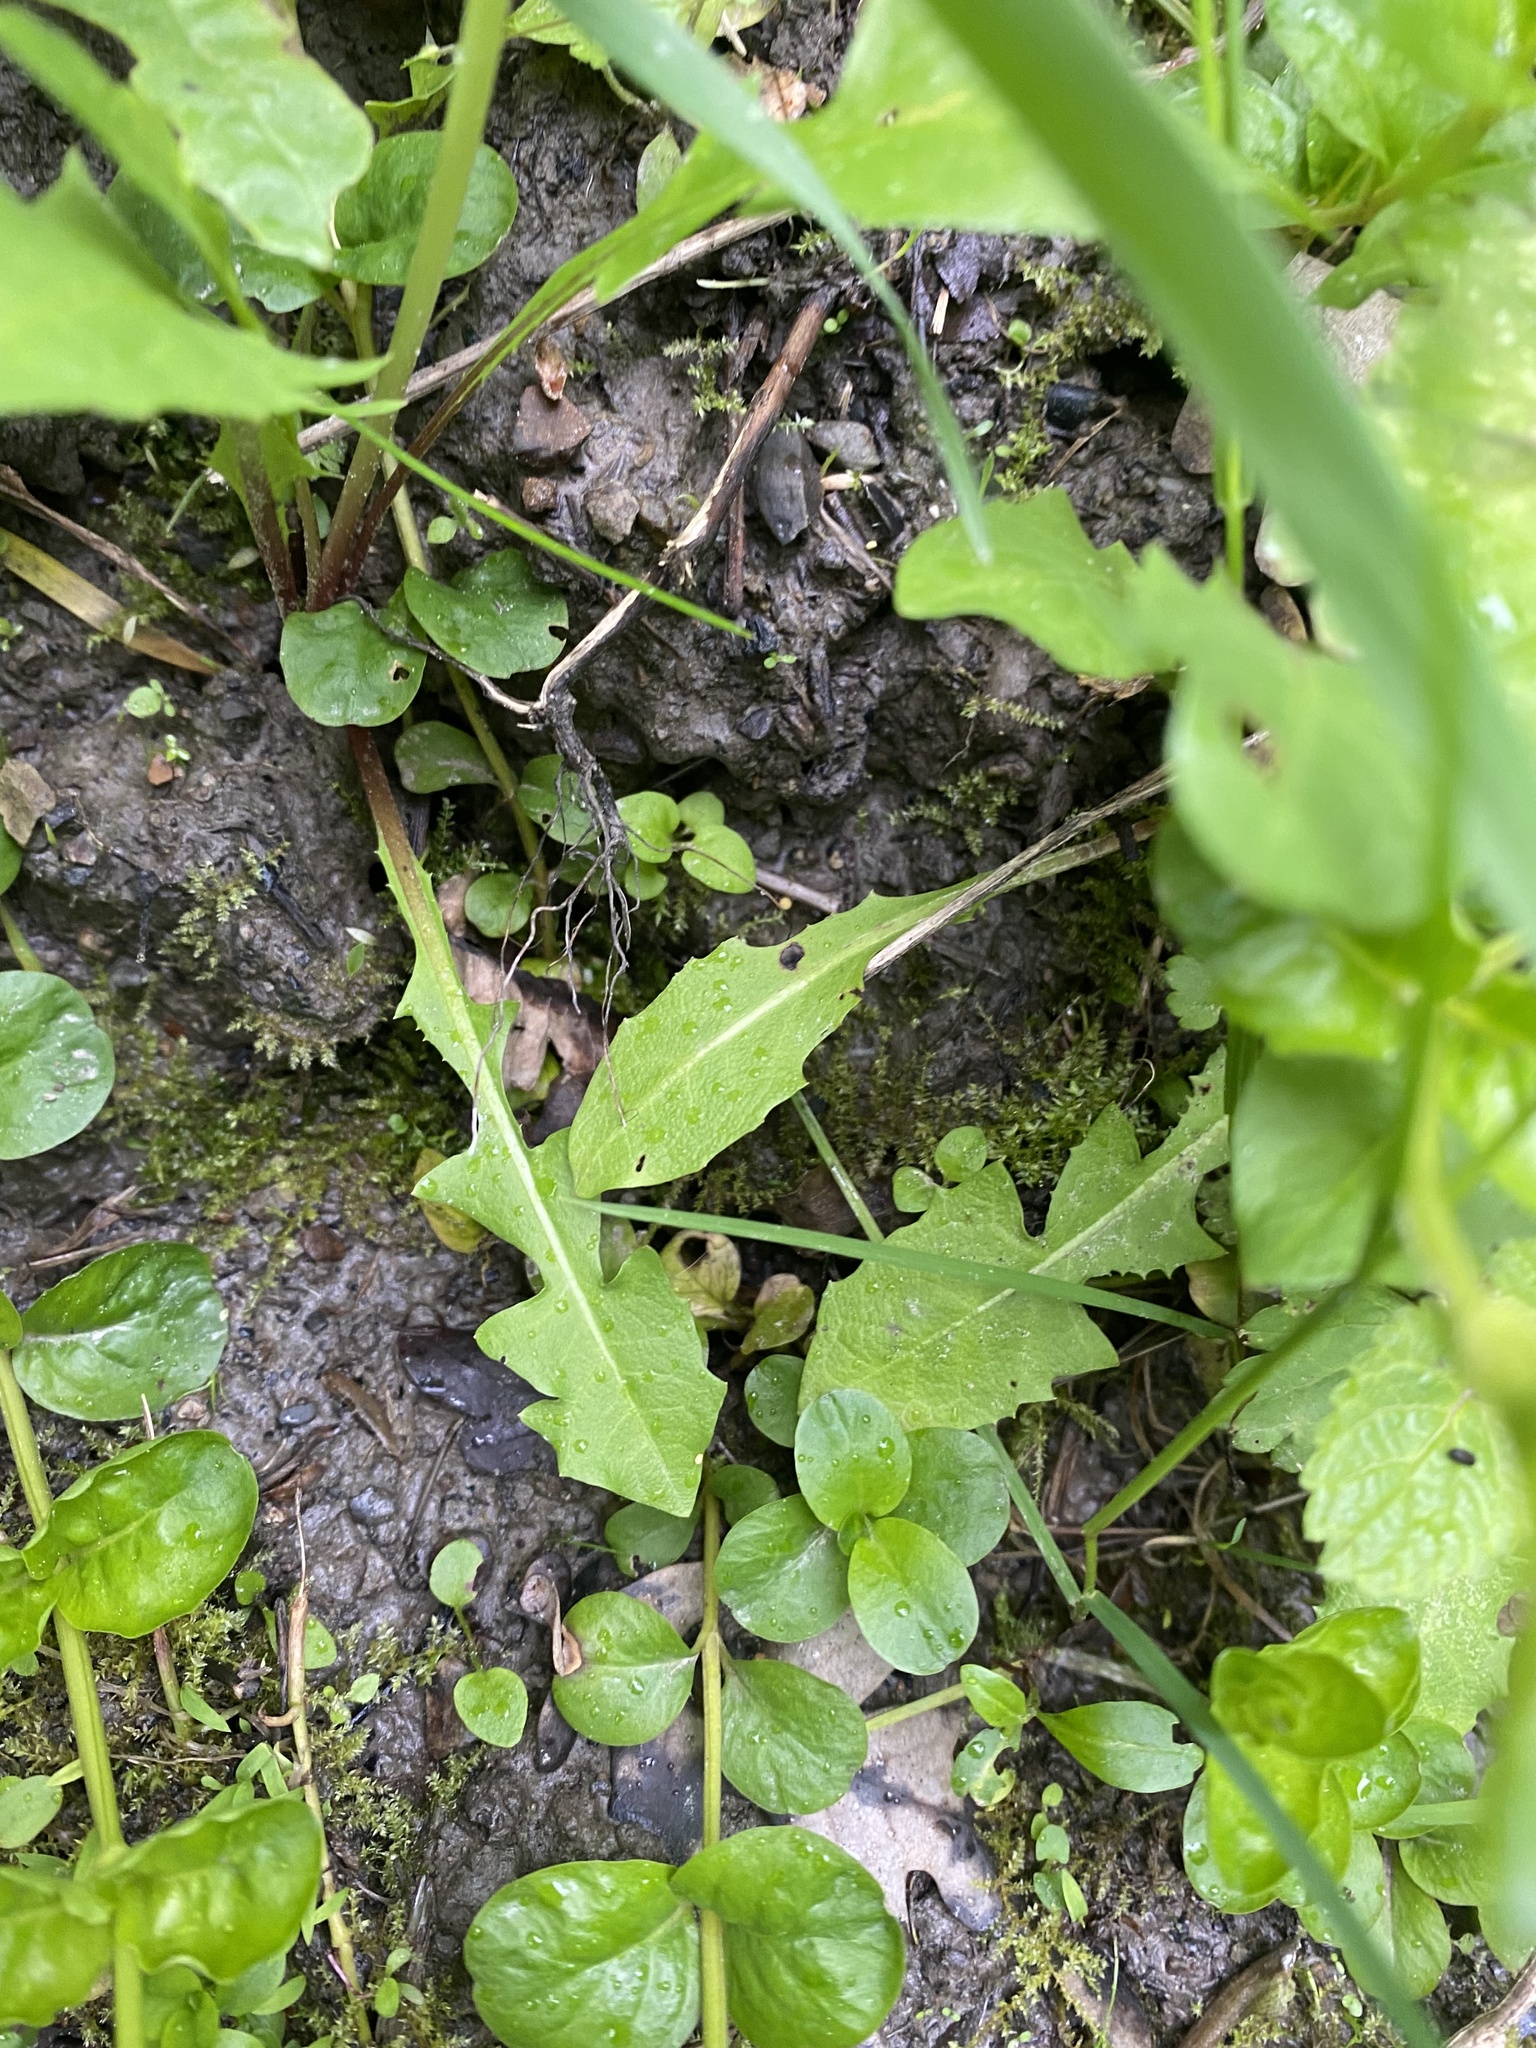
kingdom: Plantae
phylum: Tracheophyta
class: Magnoliopsida
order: Asterales
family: Asteraceae
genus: Taraxacum
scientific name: Taraxacum officinale
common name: Common dandelion
